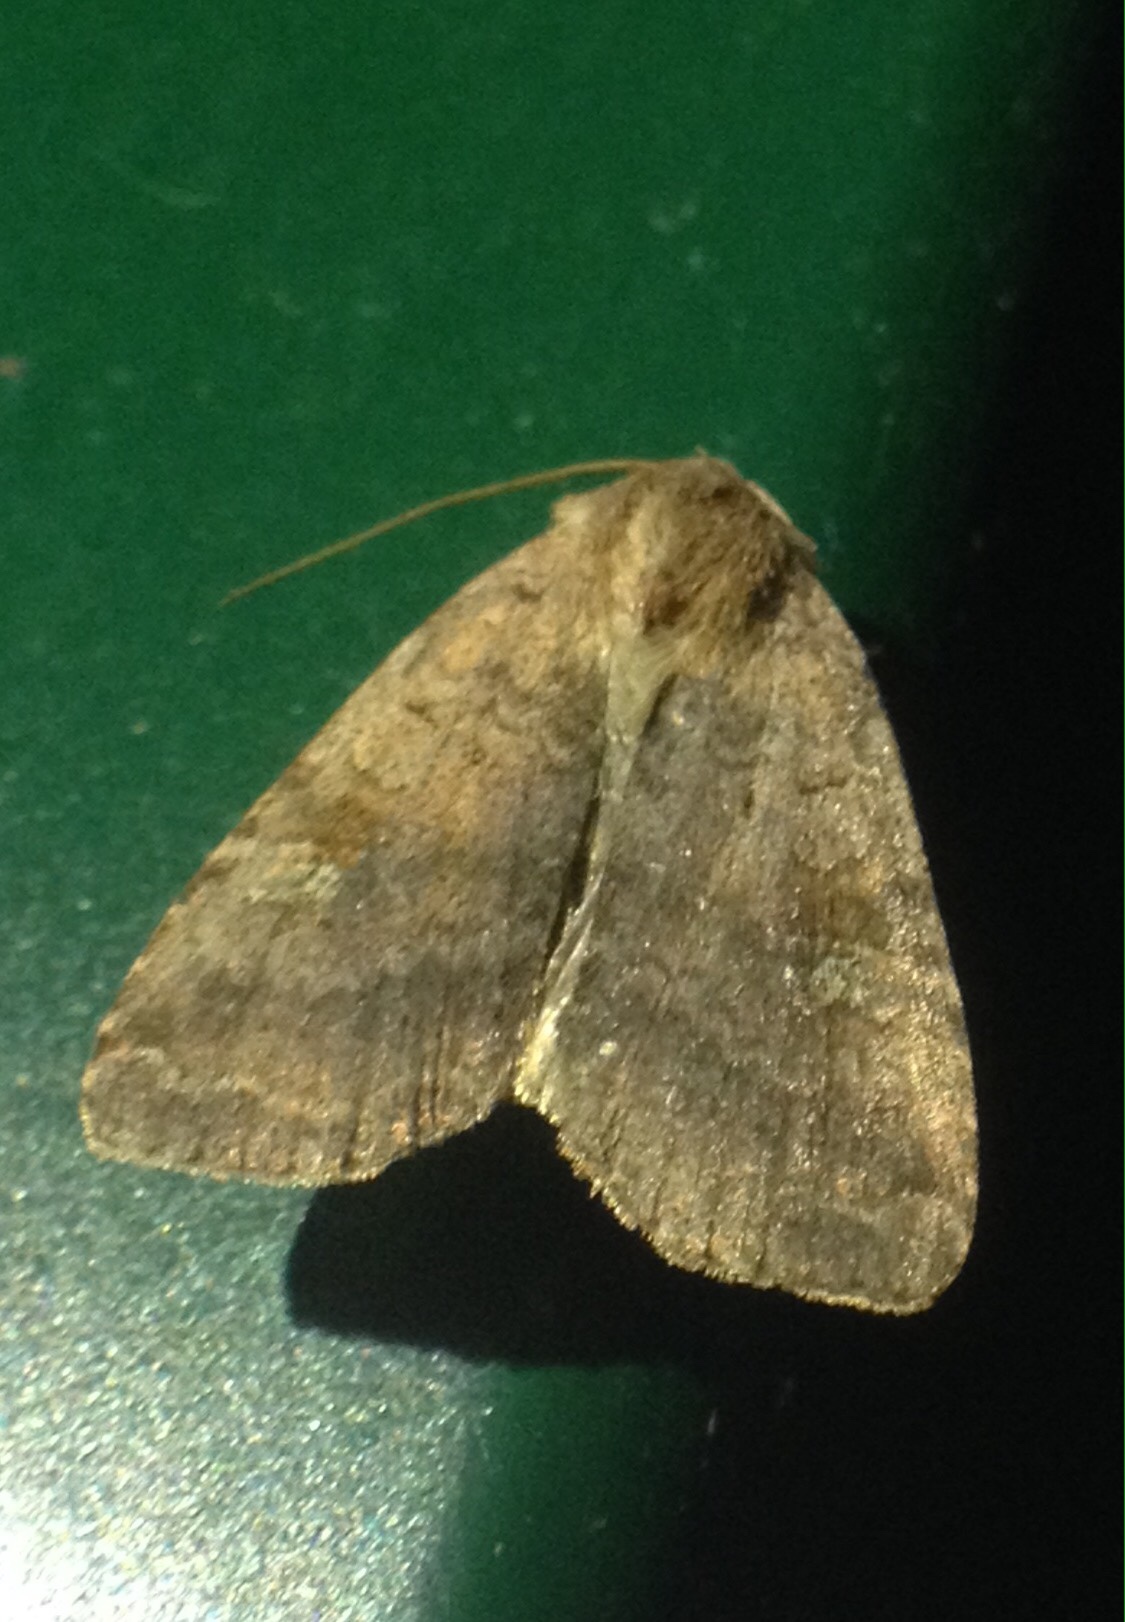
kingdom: Animalia
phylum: Arthropoda
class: Insecta
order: Lepidoptera
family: Noctuidae
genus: Diarsia
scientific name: Diarsia dahlii
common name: Barred chestnut
